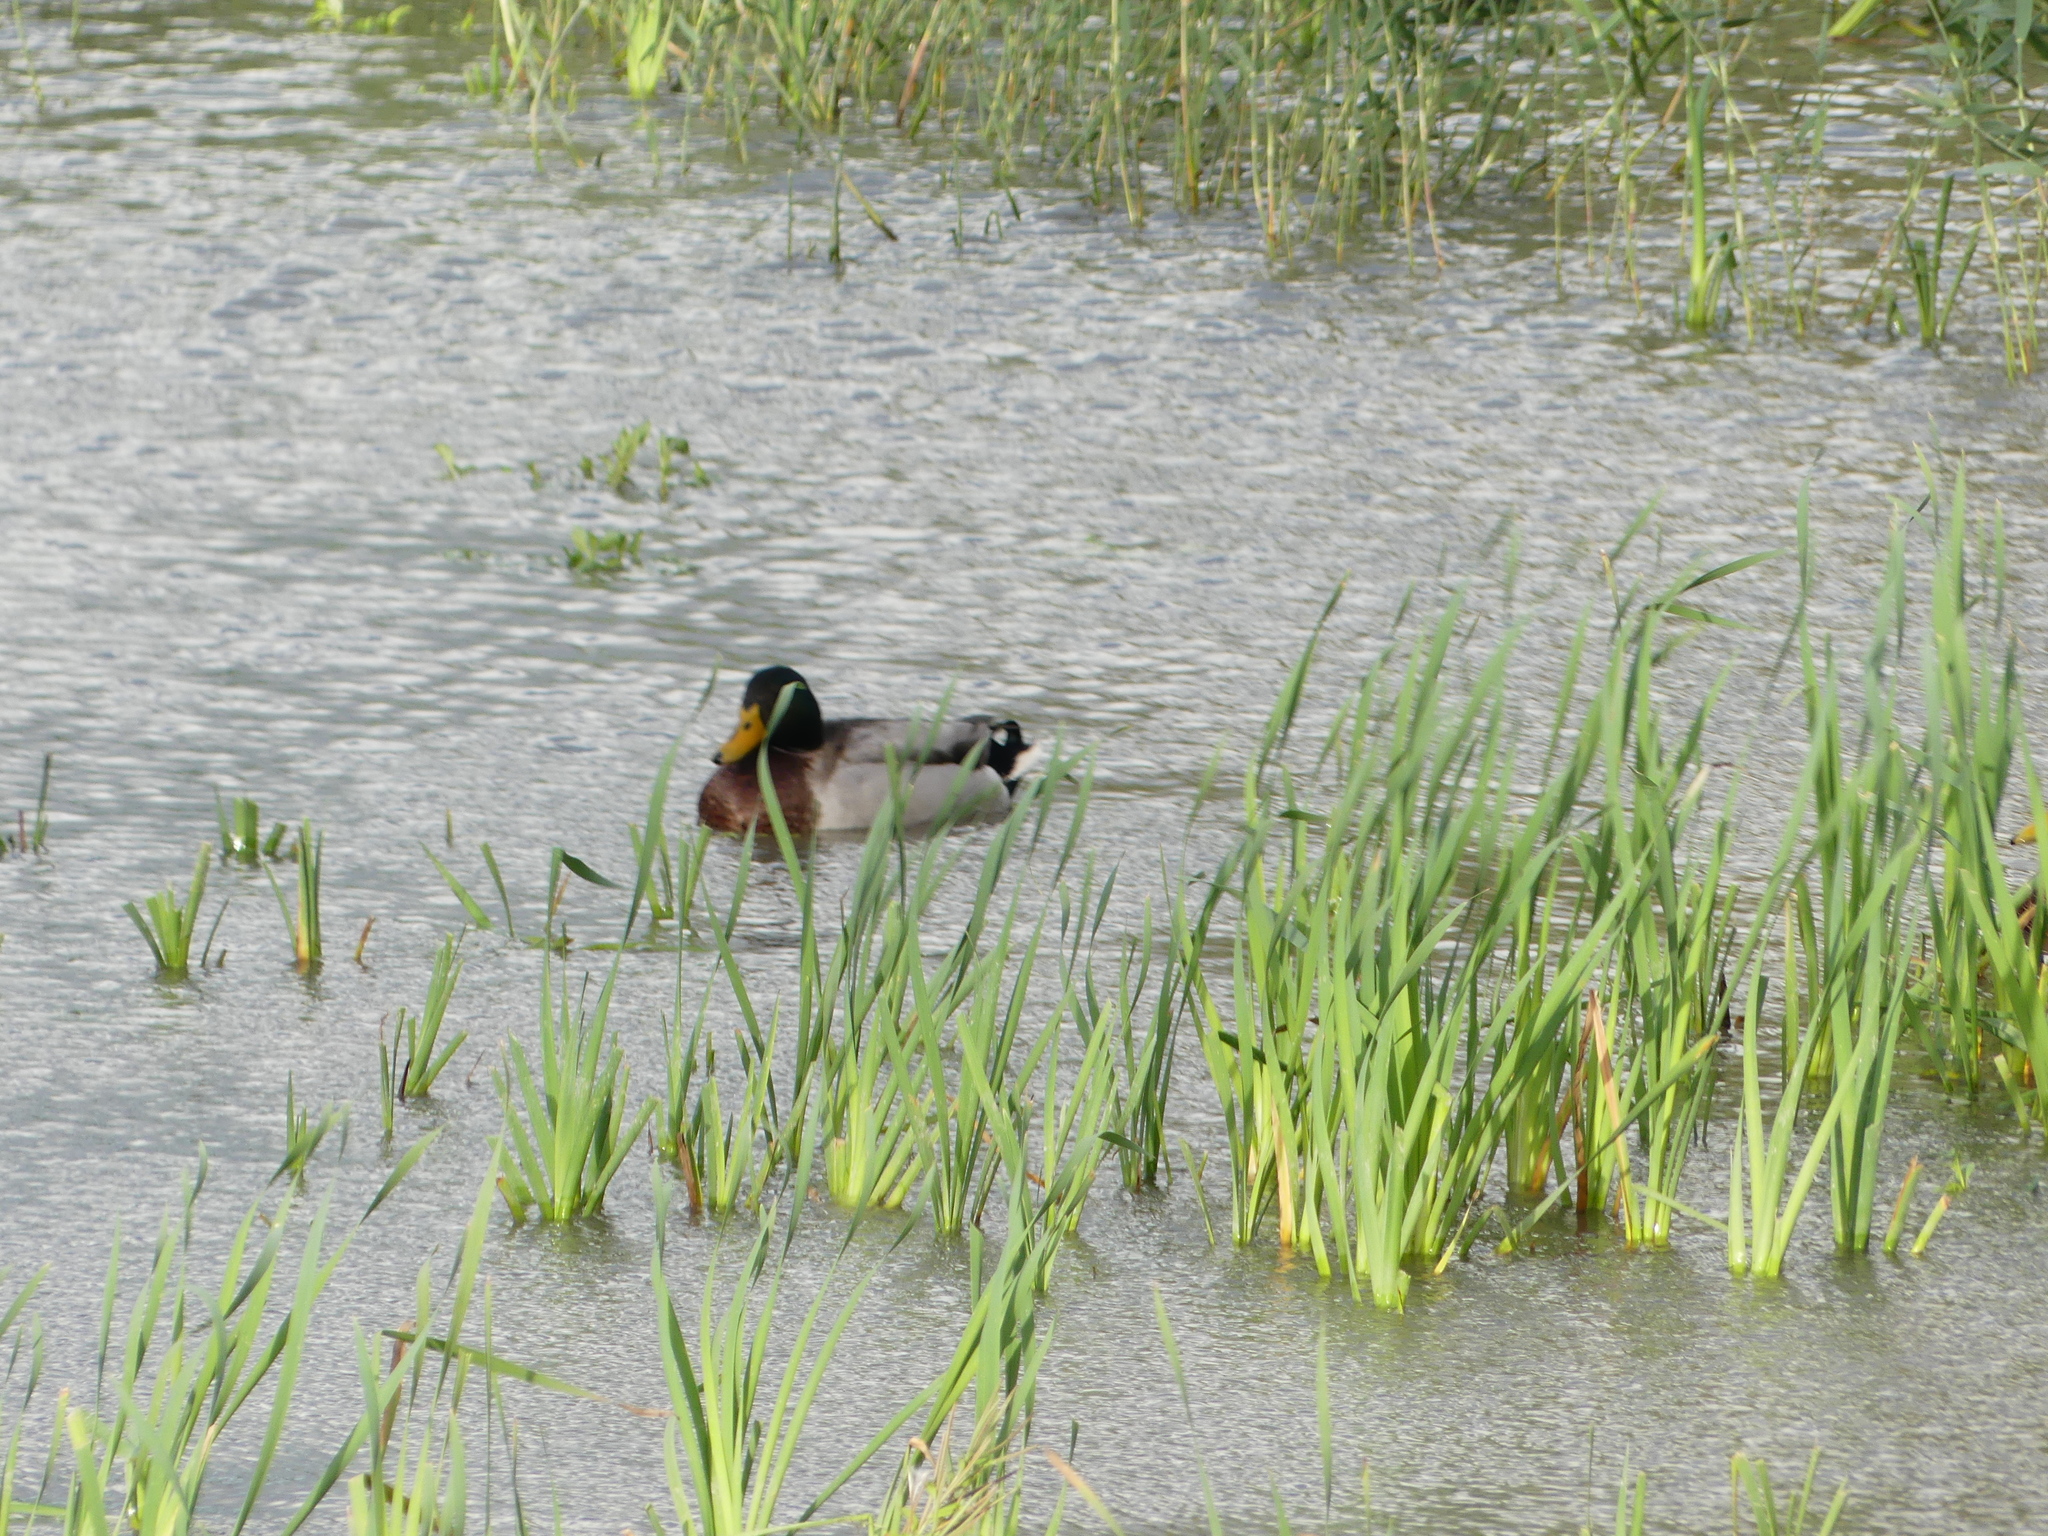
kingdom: Animalia
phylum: Chordata
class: Aves
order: Anseriformes
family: Anatidae
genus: Anas
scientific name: Anas platyrhynchos
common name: Mallard
